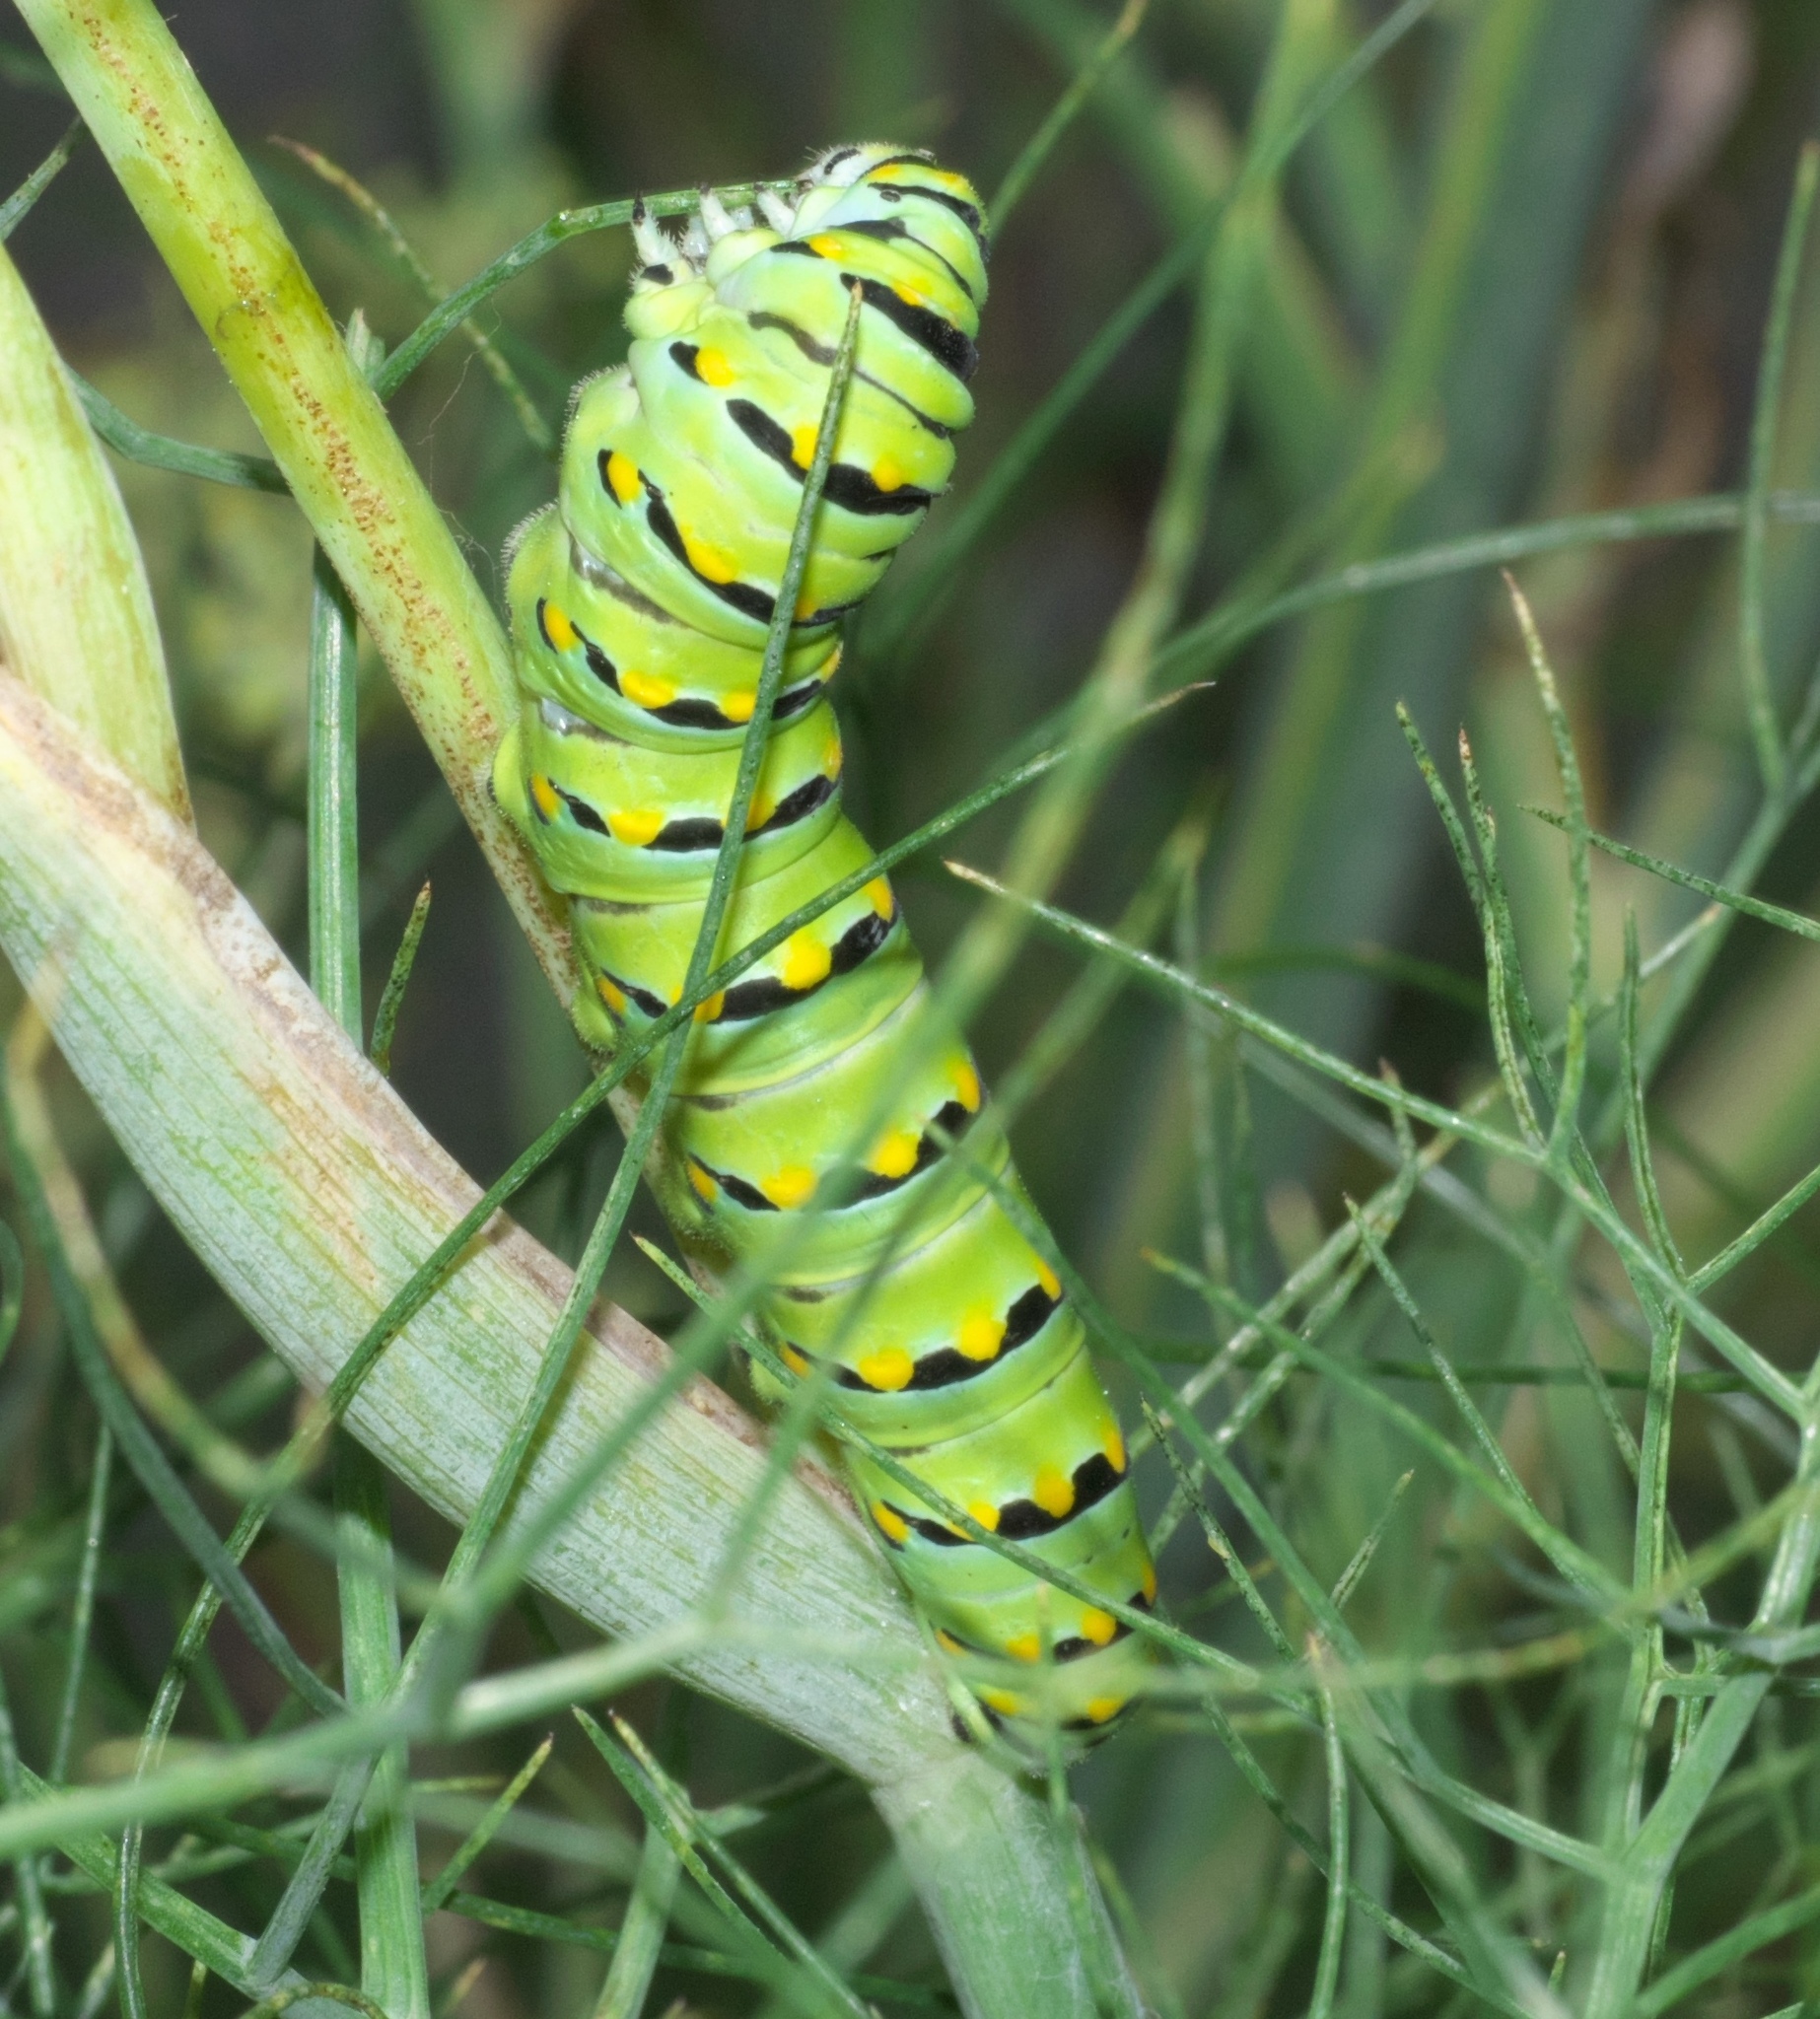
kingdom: Animalia
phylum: Arthropoda
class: Insecta
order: Lepidoptera
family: Papilionidae
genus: Papilio
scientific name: Papilio polyxenes
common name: Black swallowtail
